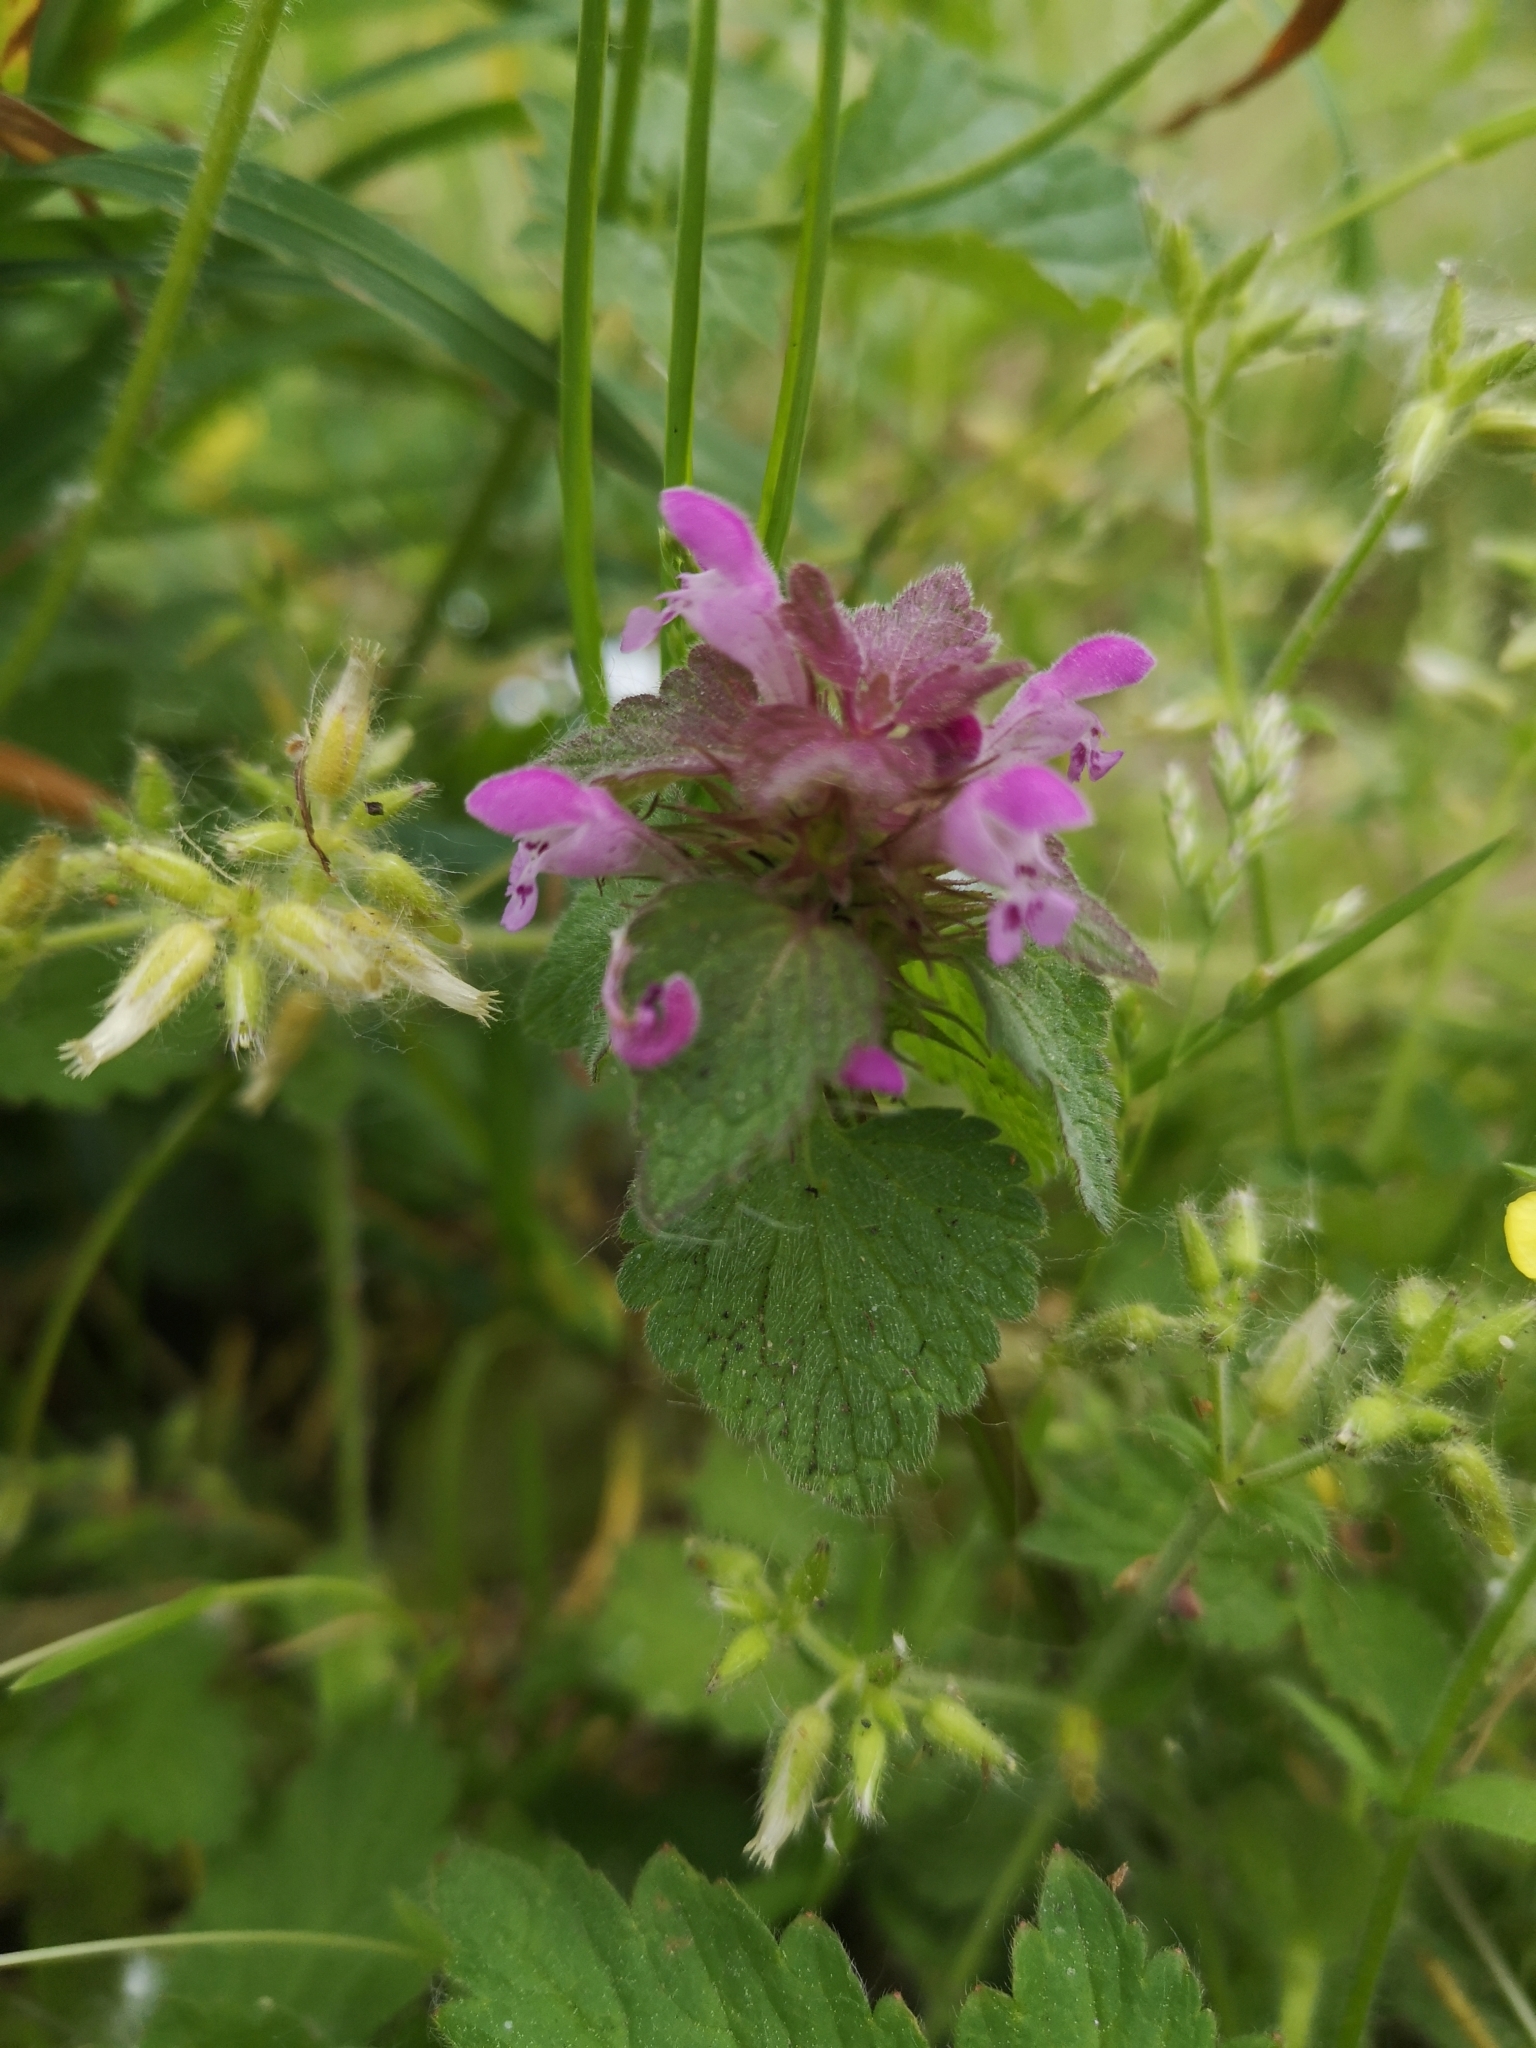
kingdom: Plantae
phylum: Tracheophyta
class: Magnoliopsida
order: Lamiales
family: Lamiaceae
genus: Lamium
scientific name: Lamium purpureum
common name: Red dead-nettle
